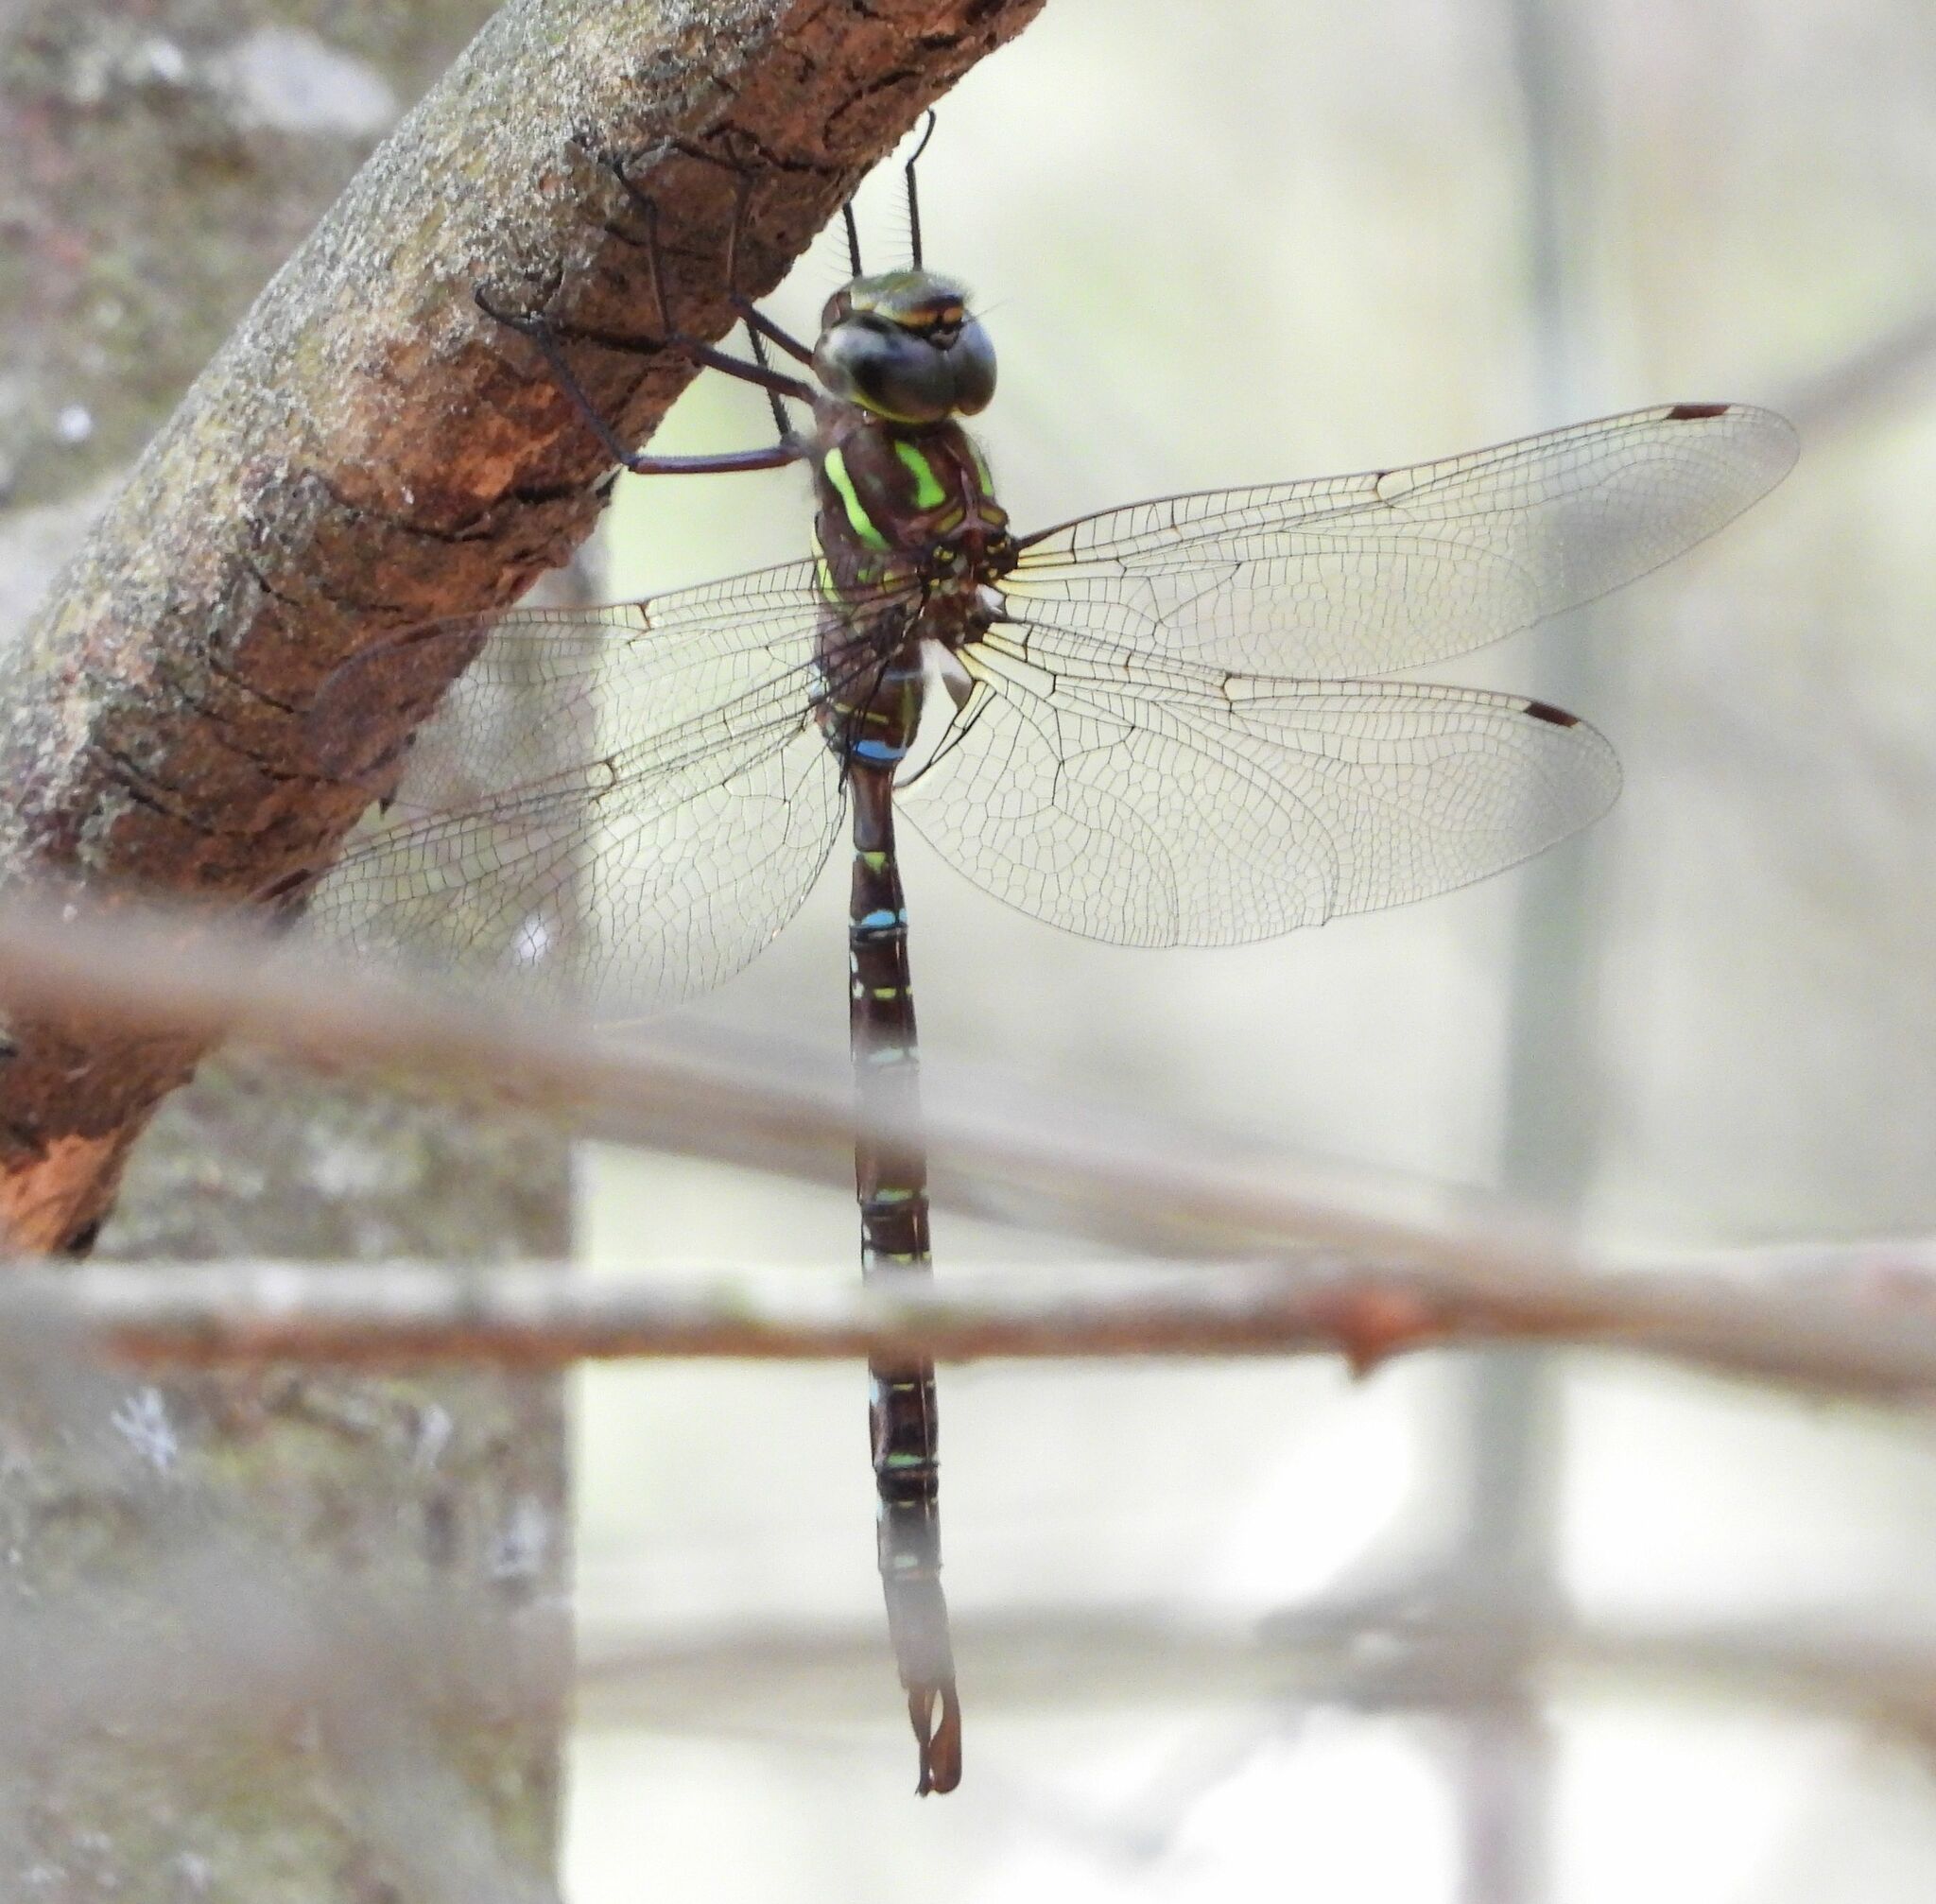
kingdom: Animalia
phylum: Arthropoda
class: Insecta
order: Odonata
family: Aeshnidae
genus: Aeshna
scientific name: Aeshna umbrosa
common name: Shadow darner
